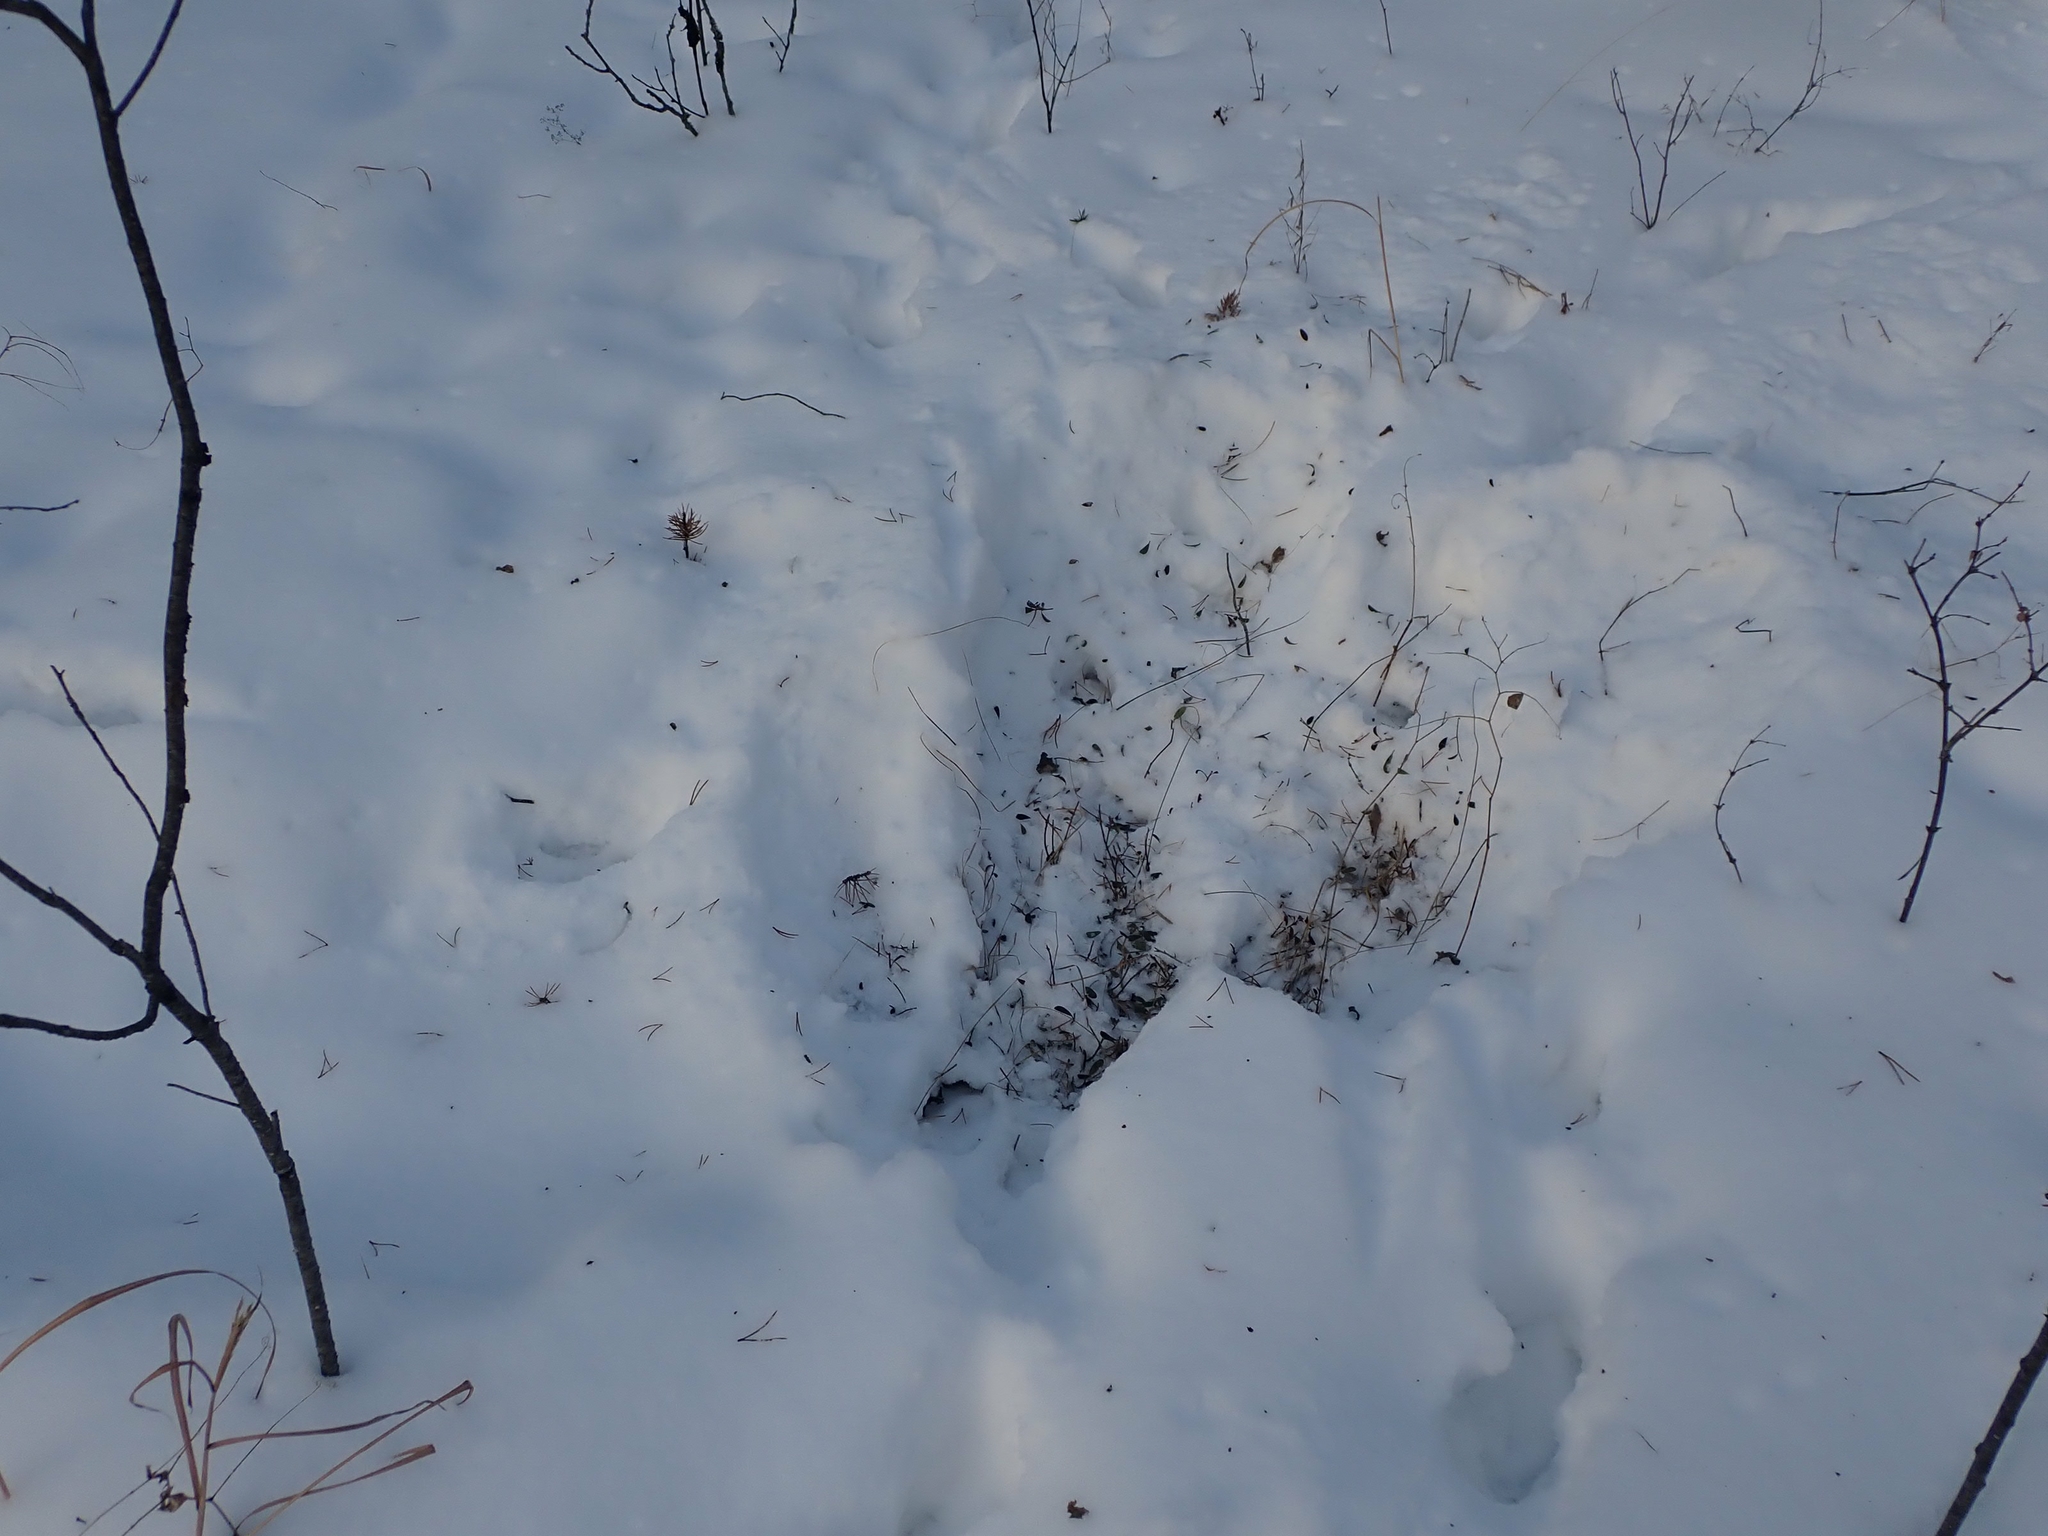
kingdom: Animalia
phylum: Chordata
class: Mammalia
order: Artiodactyla
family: Cervidae
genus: Odocoileus
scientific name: Odocoileus virginianus
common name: White-tailed deer
